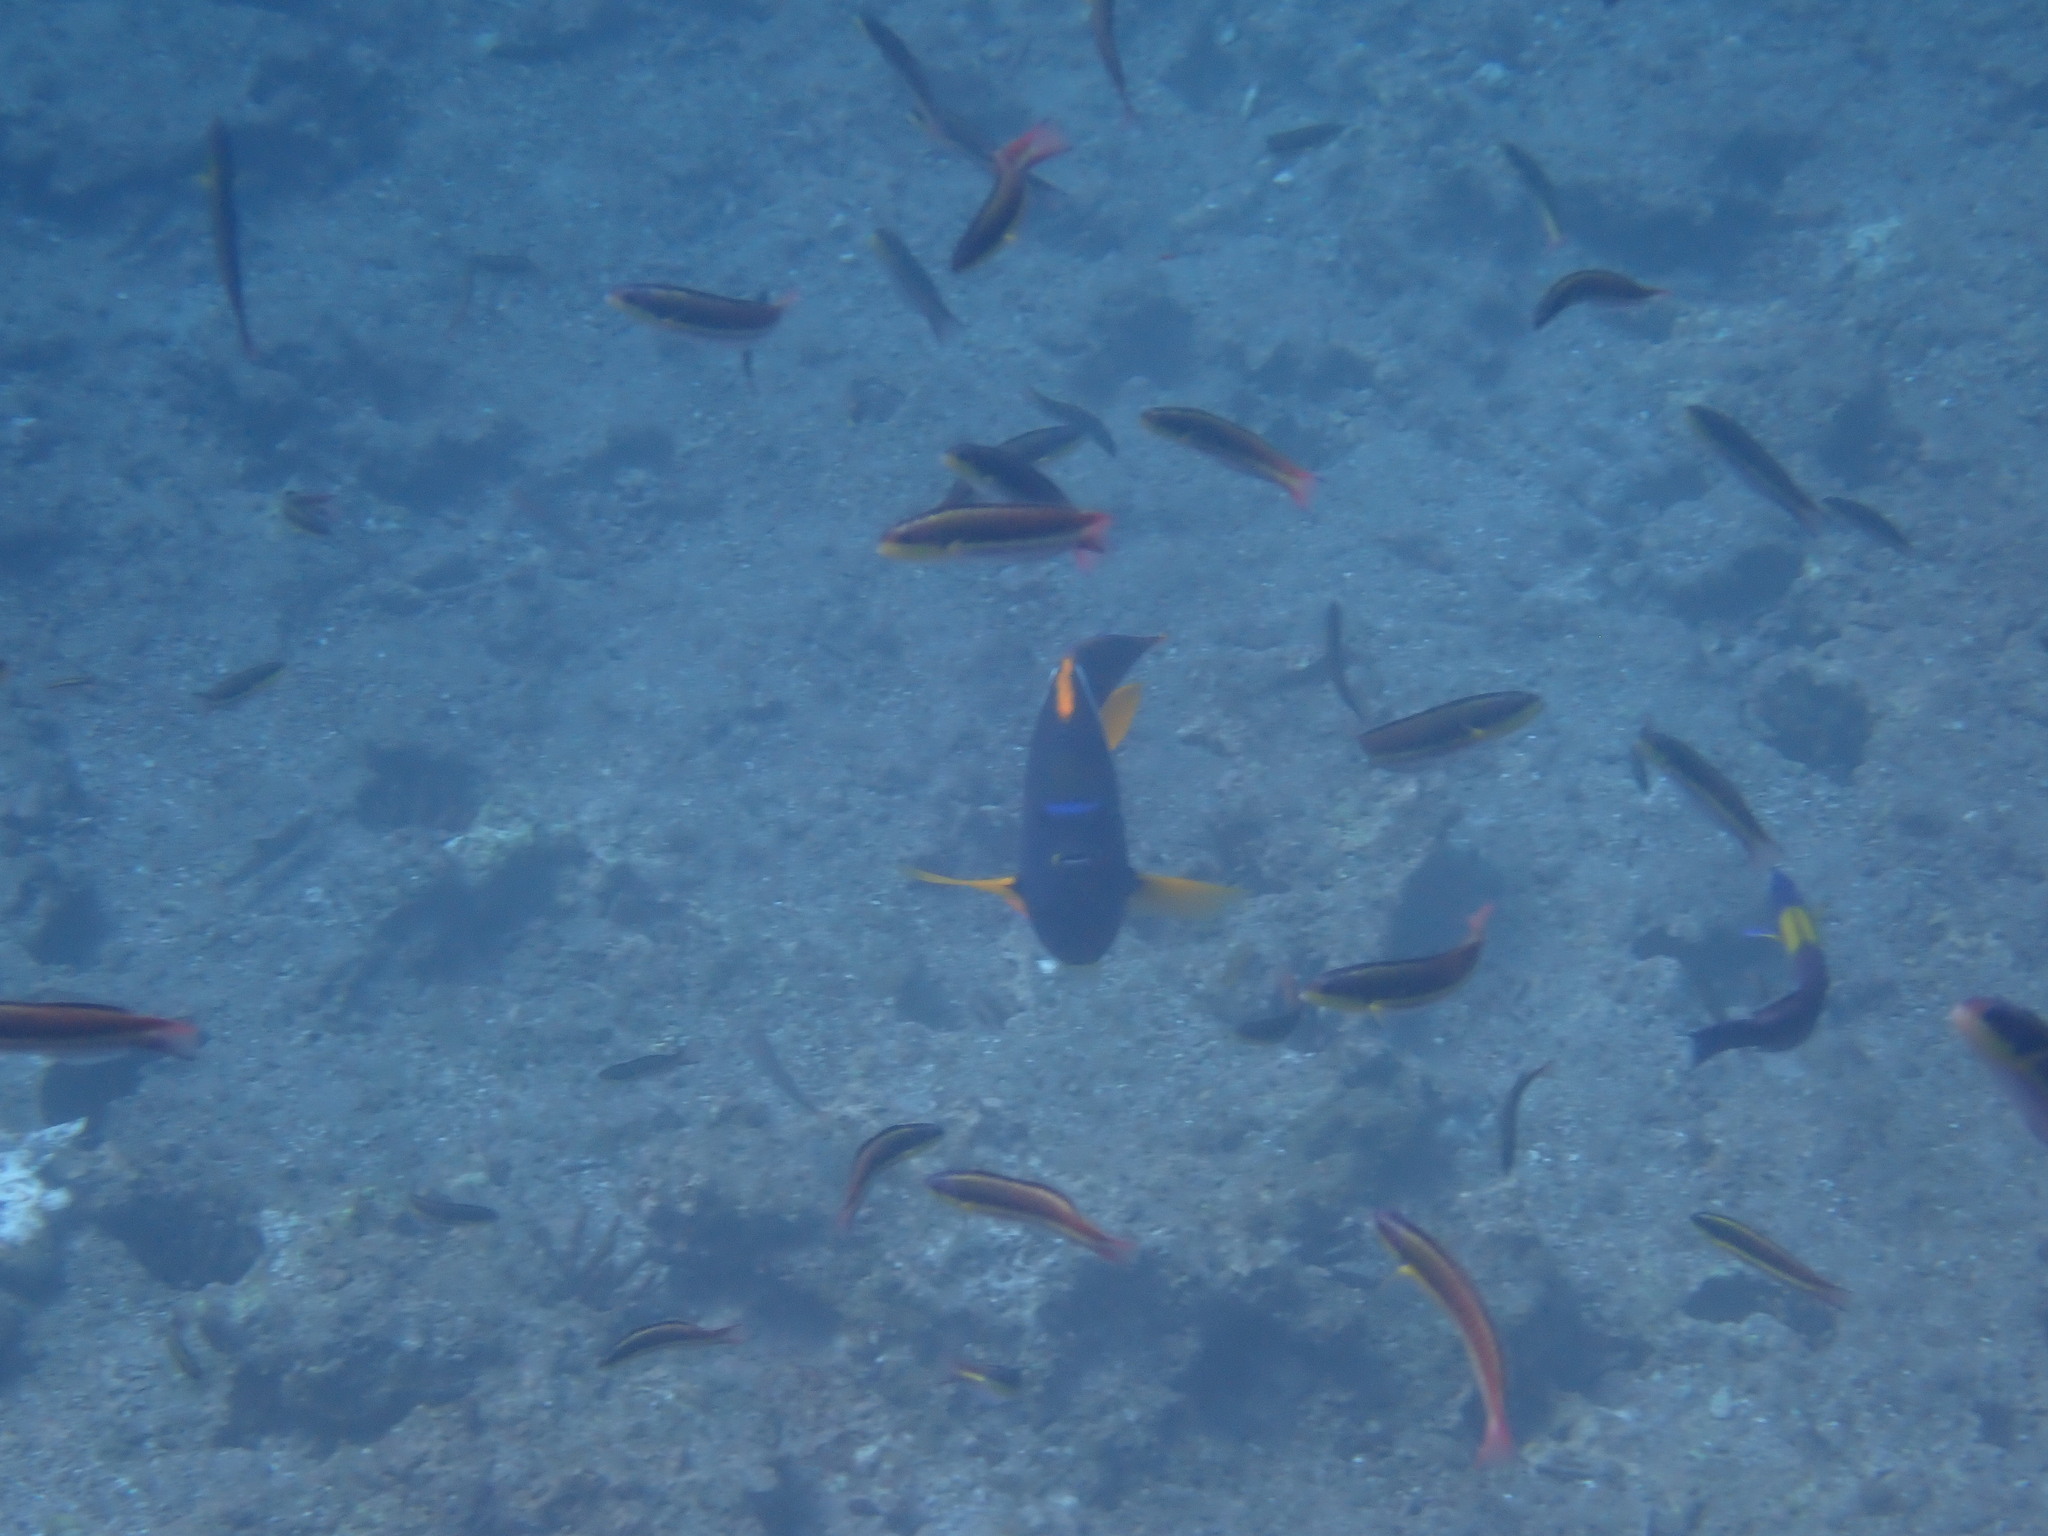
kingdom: Animalia
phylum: Chordata
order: Perciformes
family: Pomacanthidae
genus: Holacanthus
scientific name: Holacanthus passer
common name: King angelfish
